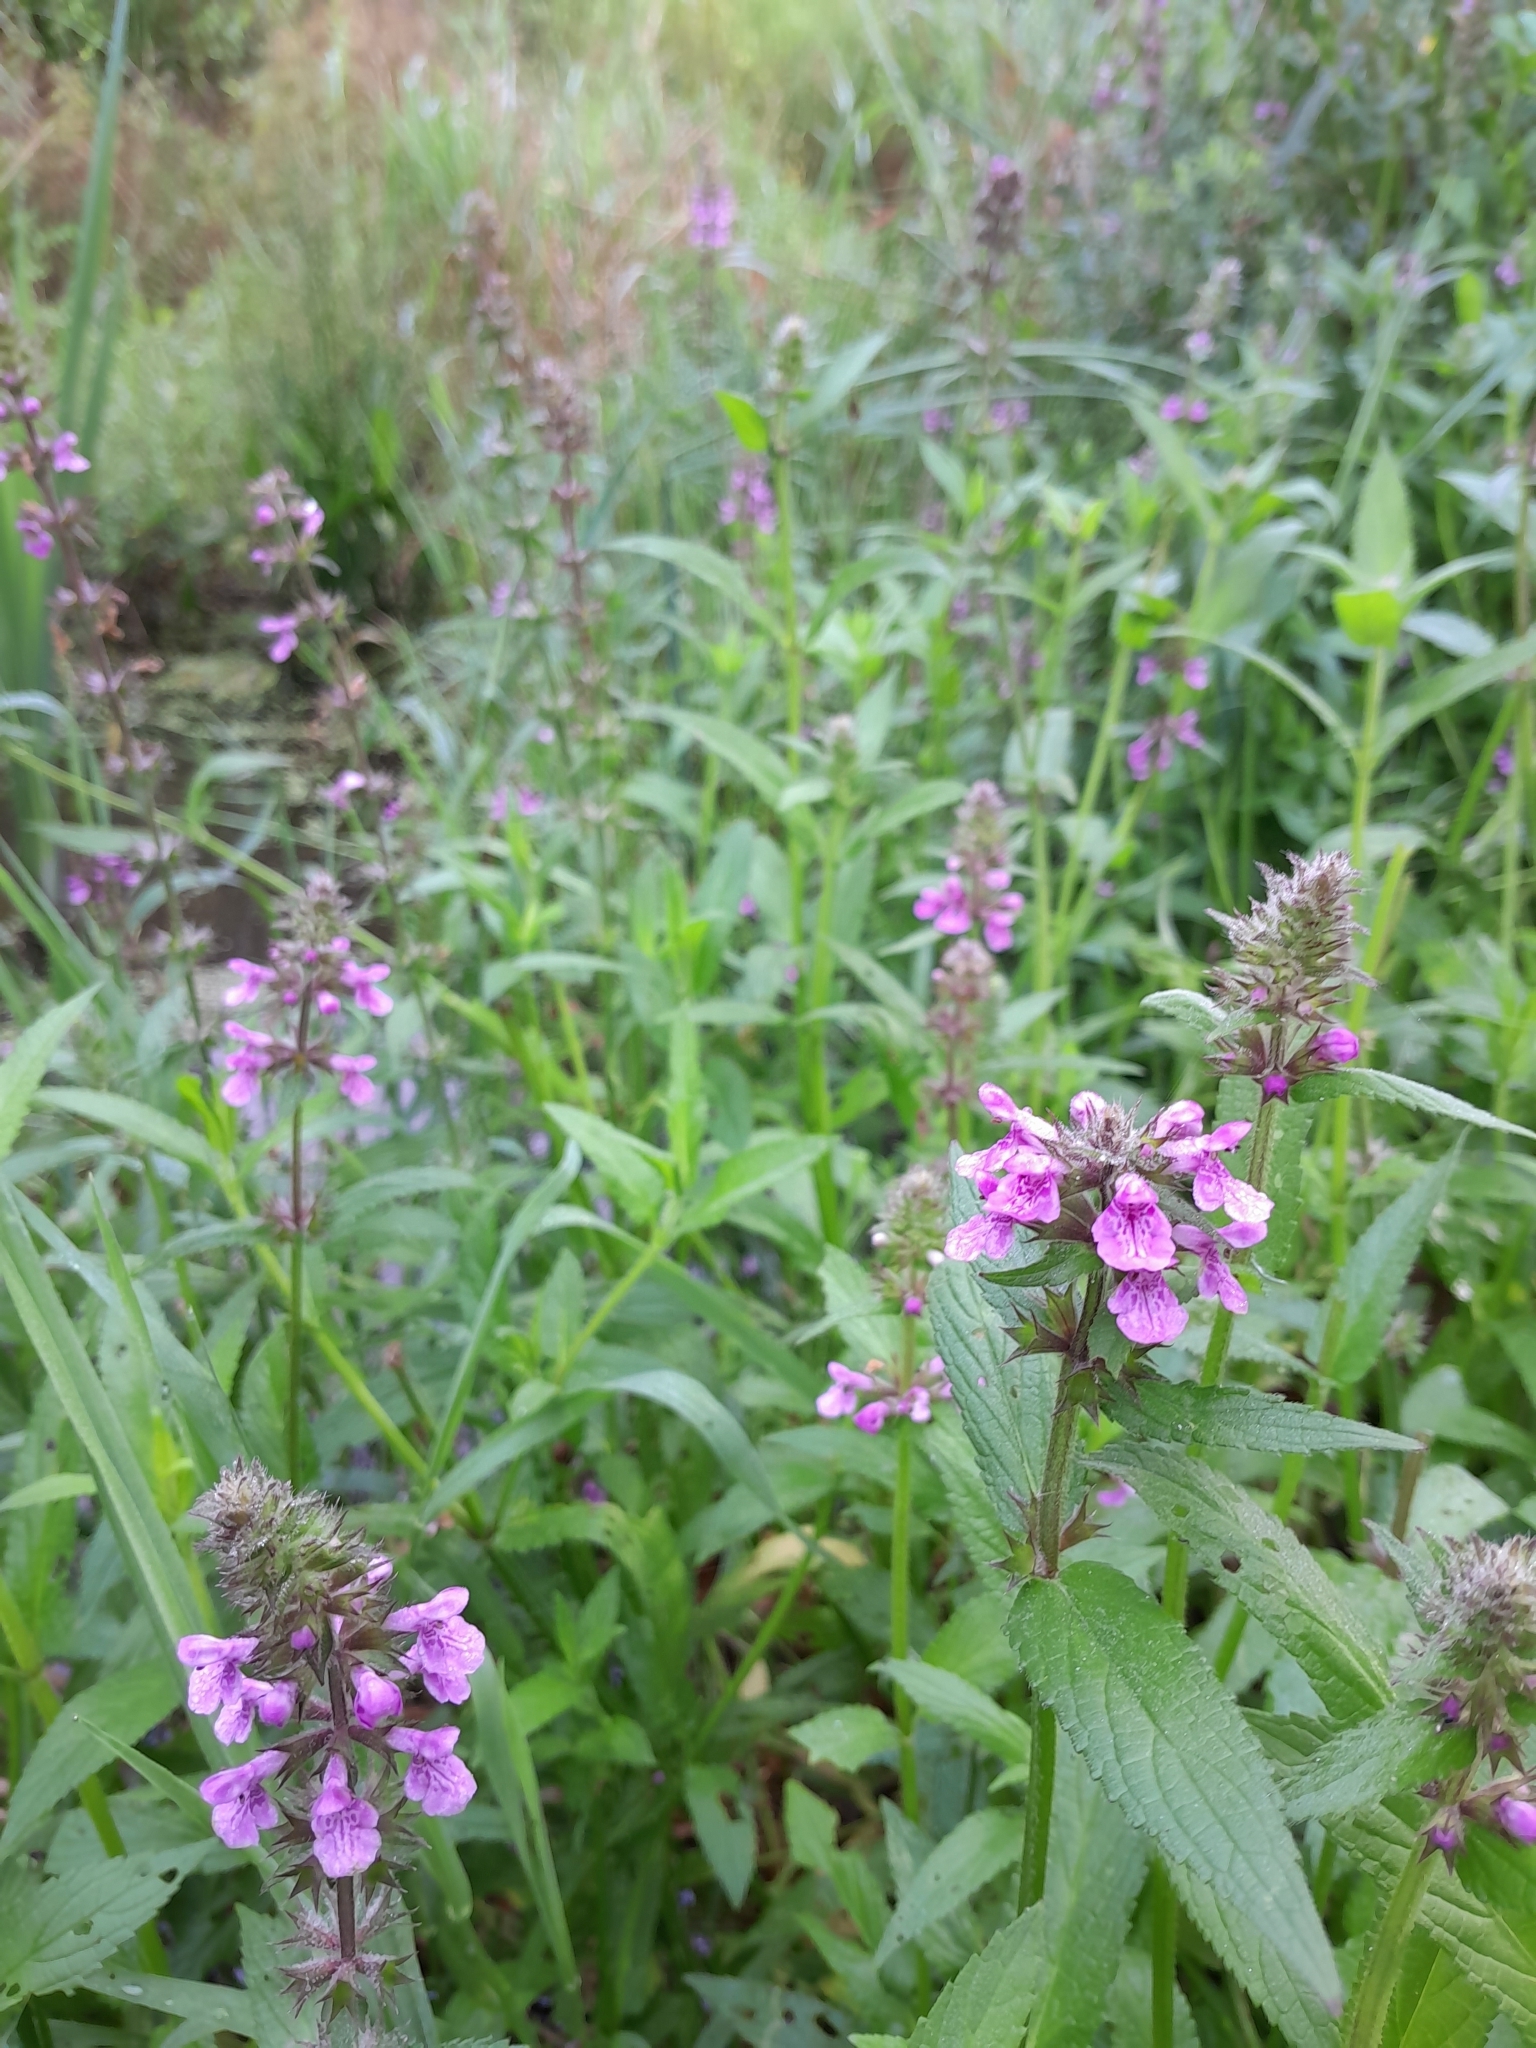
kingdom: Plantae
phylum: Tracheophyta
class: Magnoliopsida
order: Lamiales
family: Lamiaceae
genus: Stachys
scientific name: Stachys palustris
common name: Marsh woundwort
